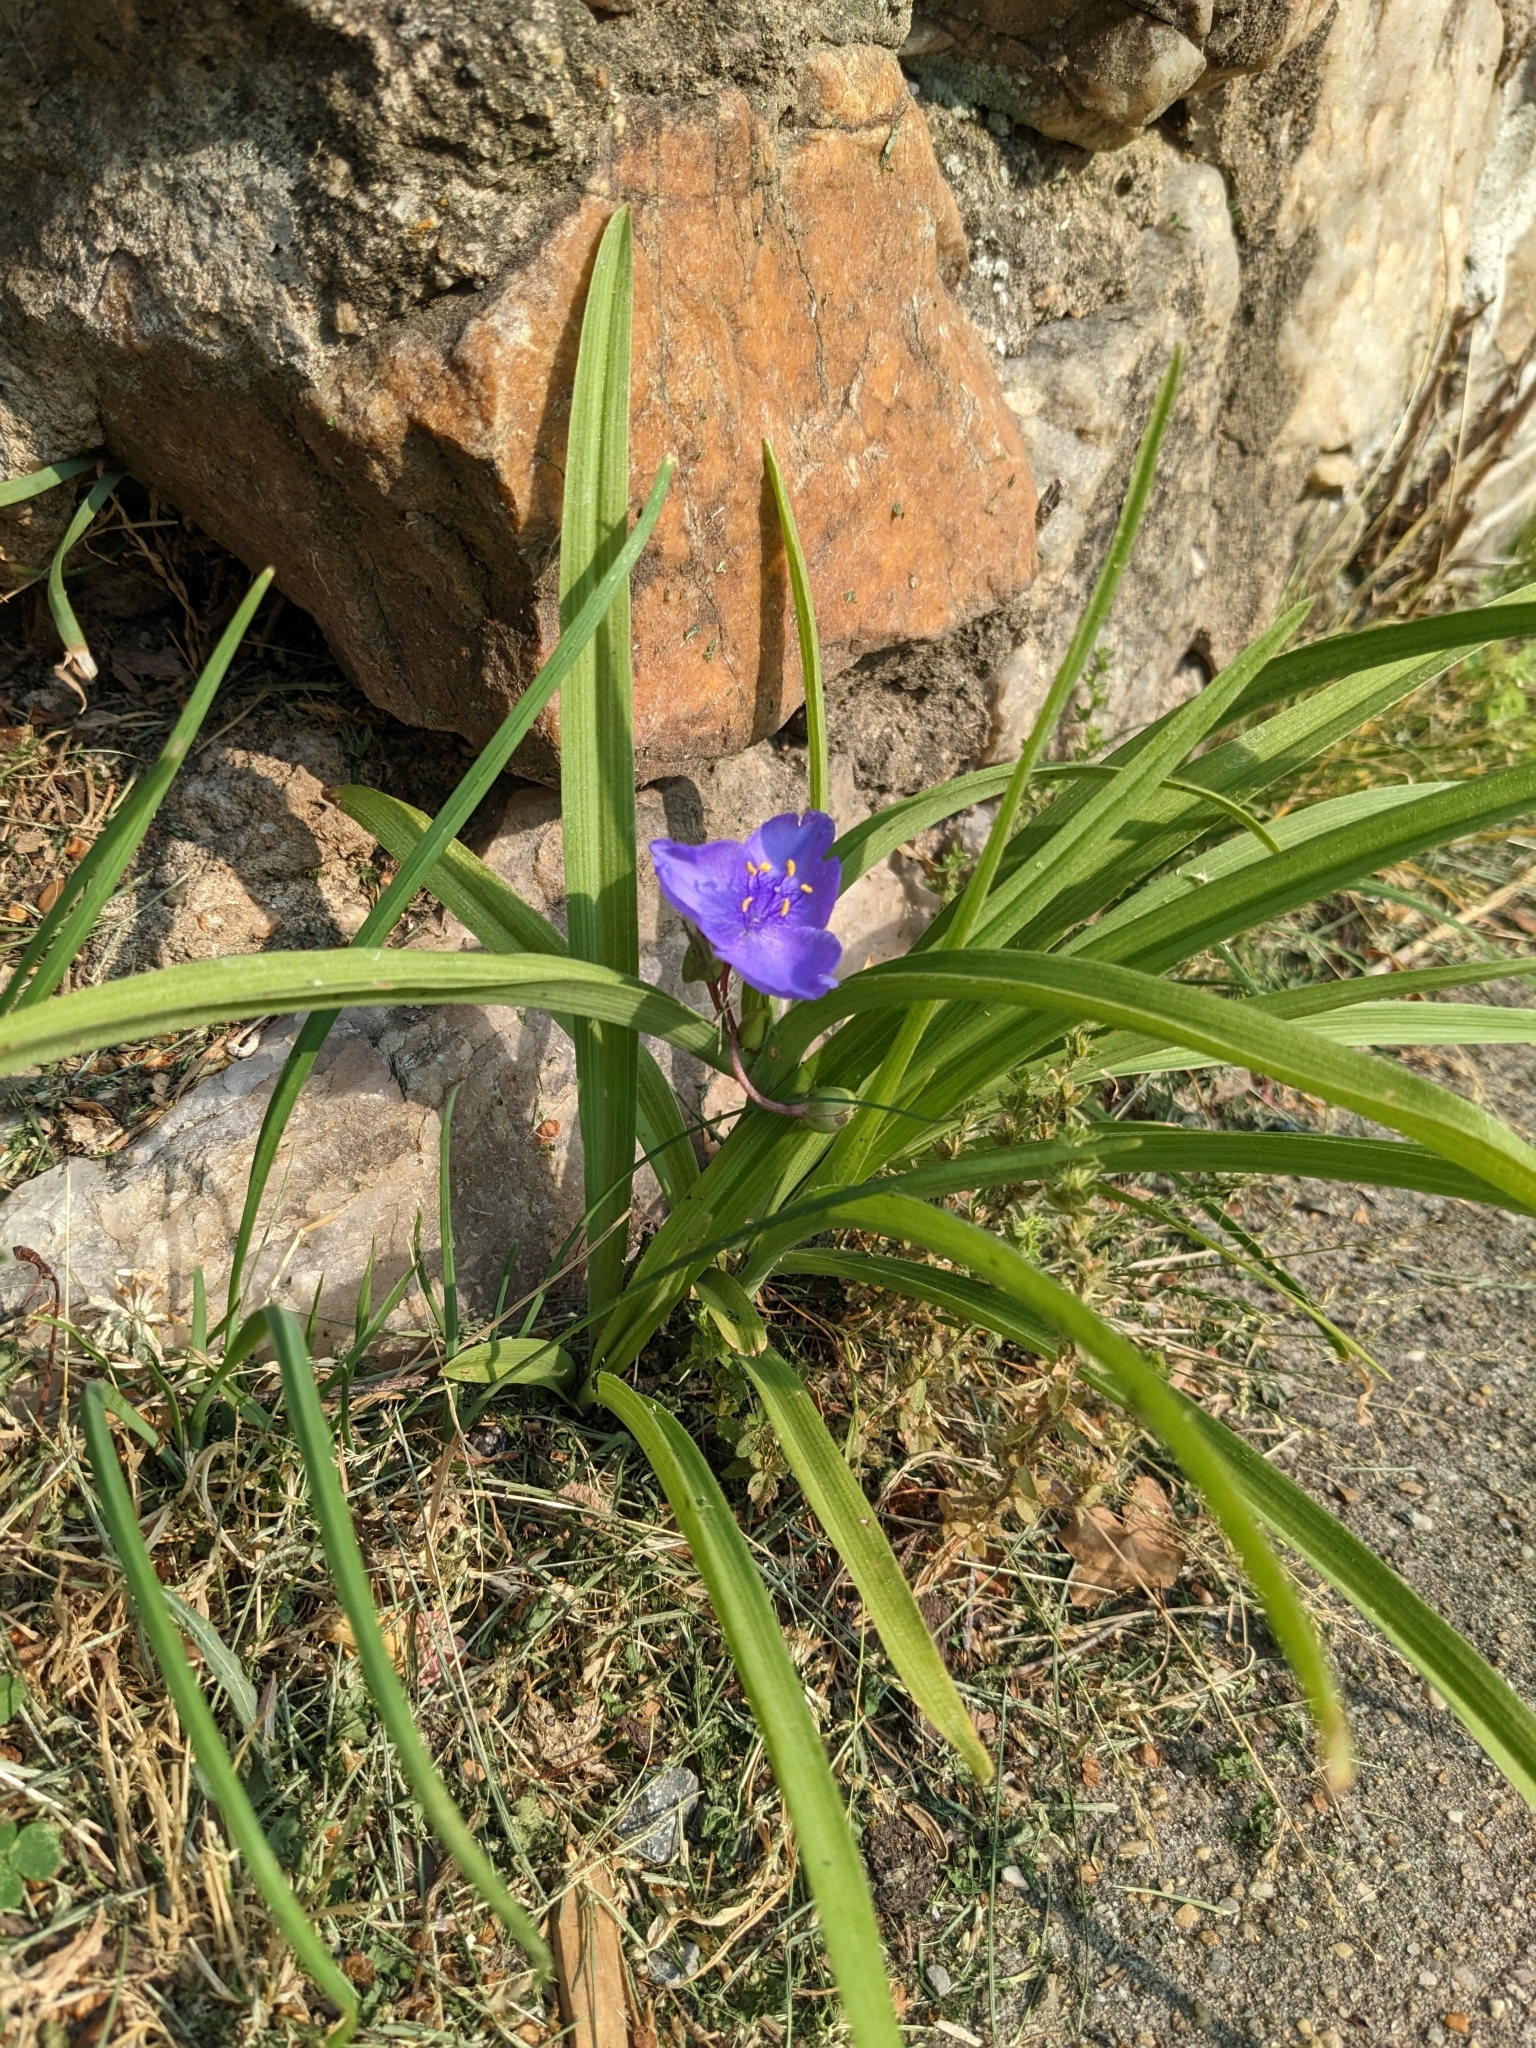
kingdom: Plantae
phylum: Tracheophyta
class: Liliopsida
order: Commelinales
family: Commelinaceae
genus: Tradescantia
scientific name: Tradescantia virginiana
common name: Spiderwort
